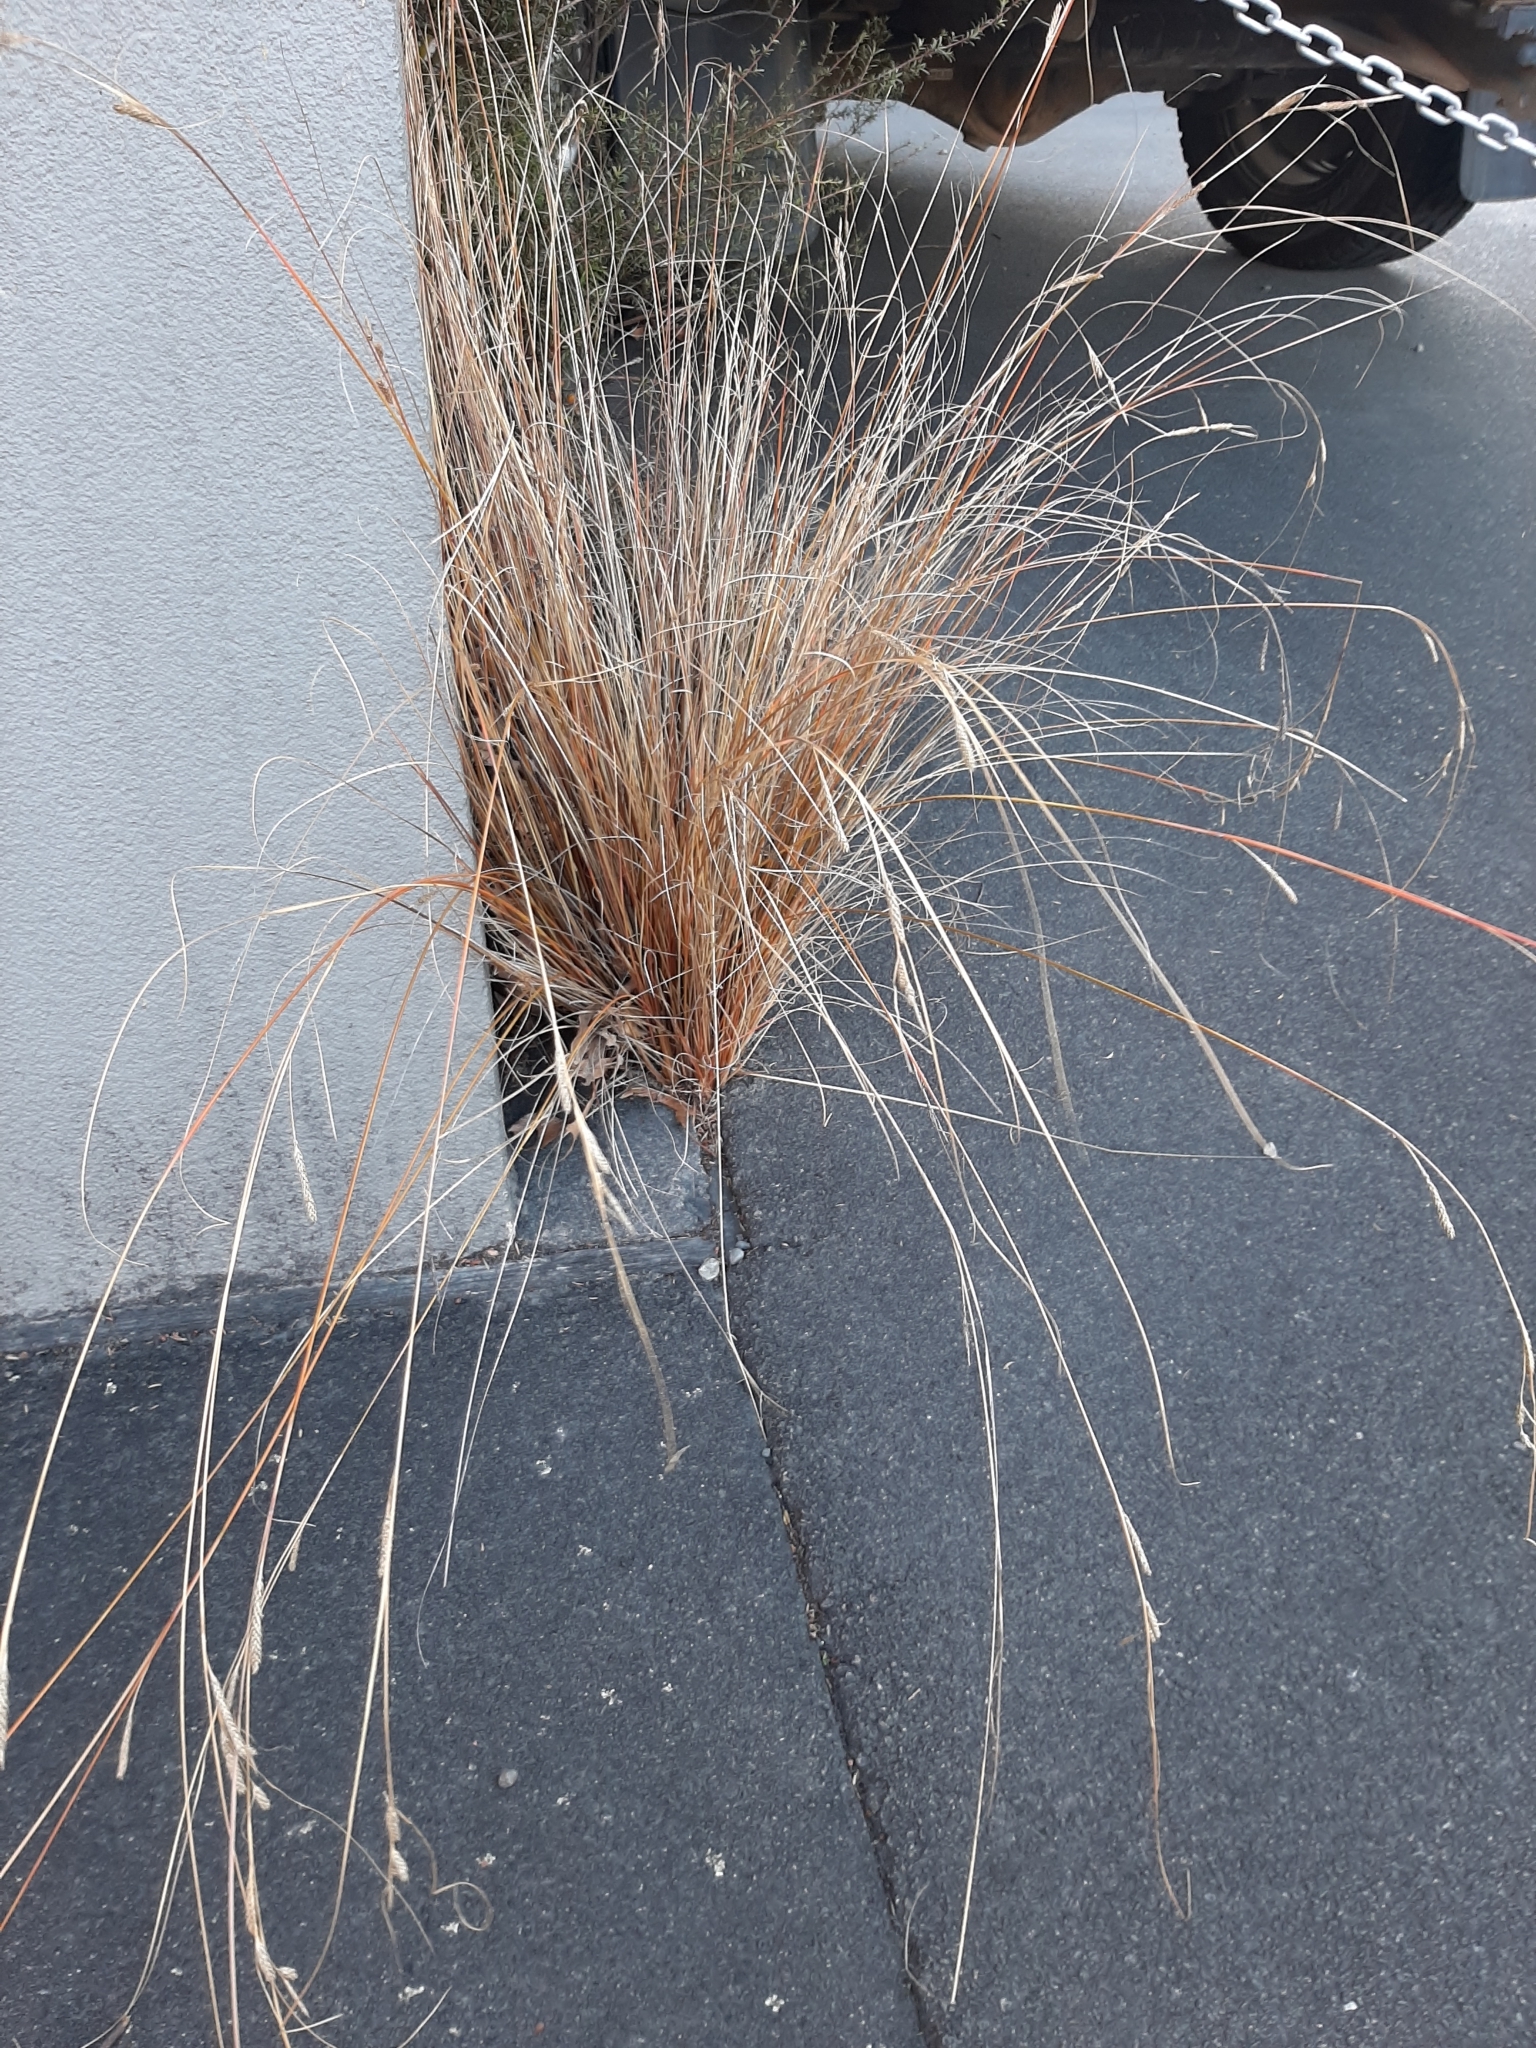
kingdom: Plantae
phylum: Tracheophyta
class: Liliopsida
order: Poales
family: Cyperaceae
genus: Carex
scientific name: Carex buchananii
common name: Leatherleaf sedge
